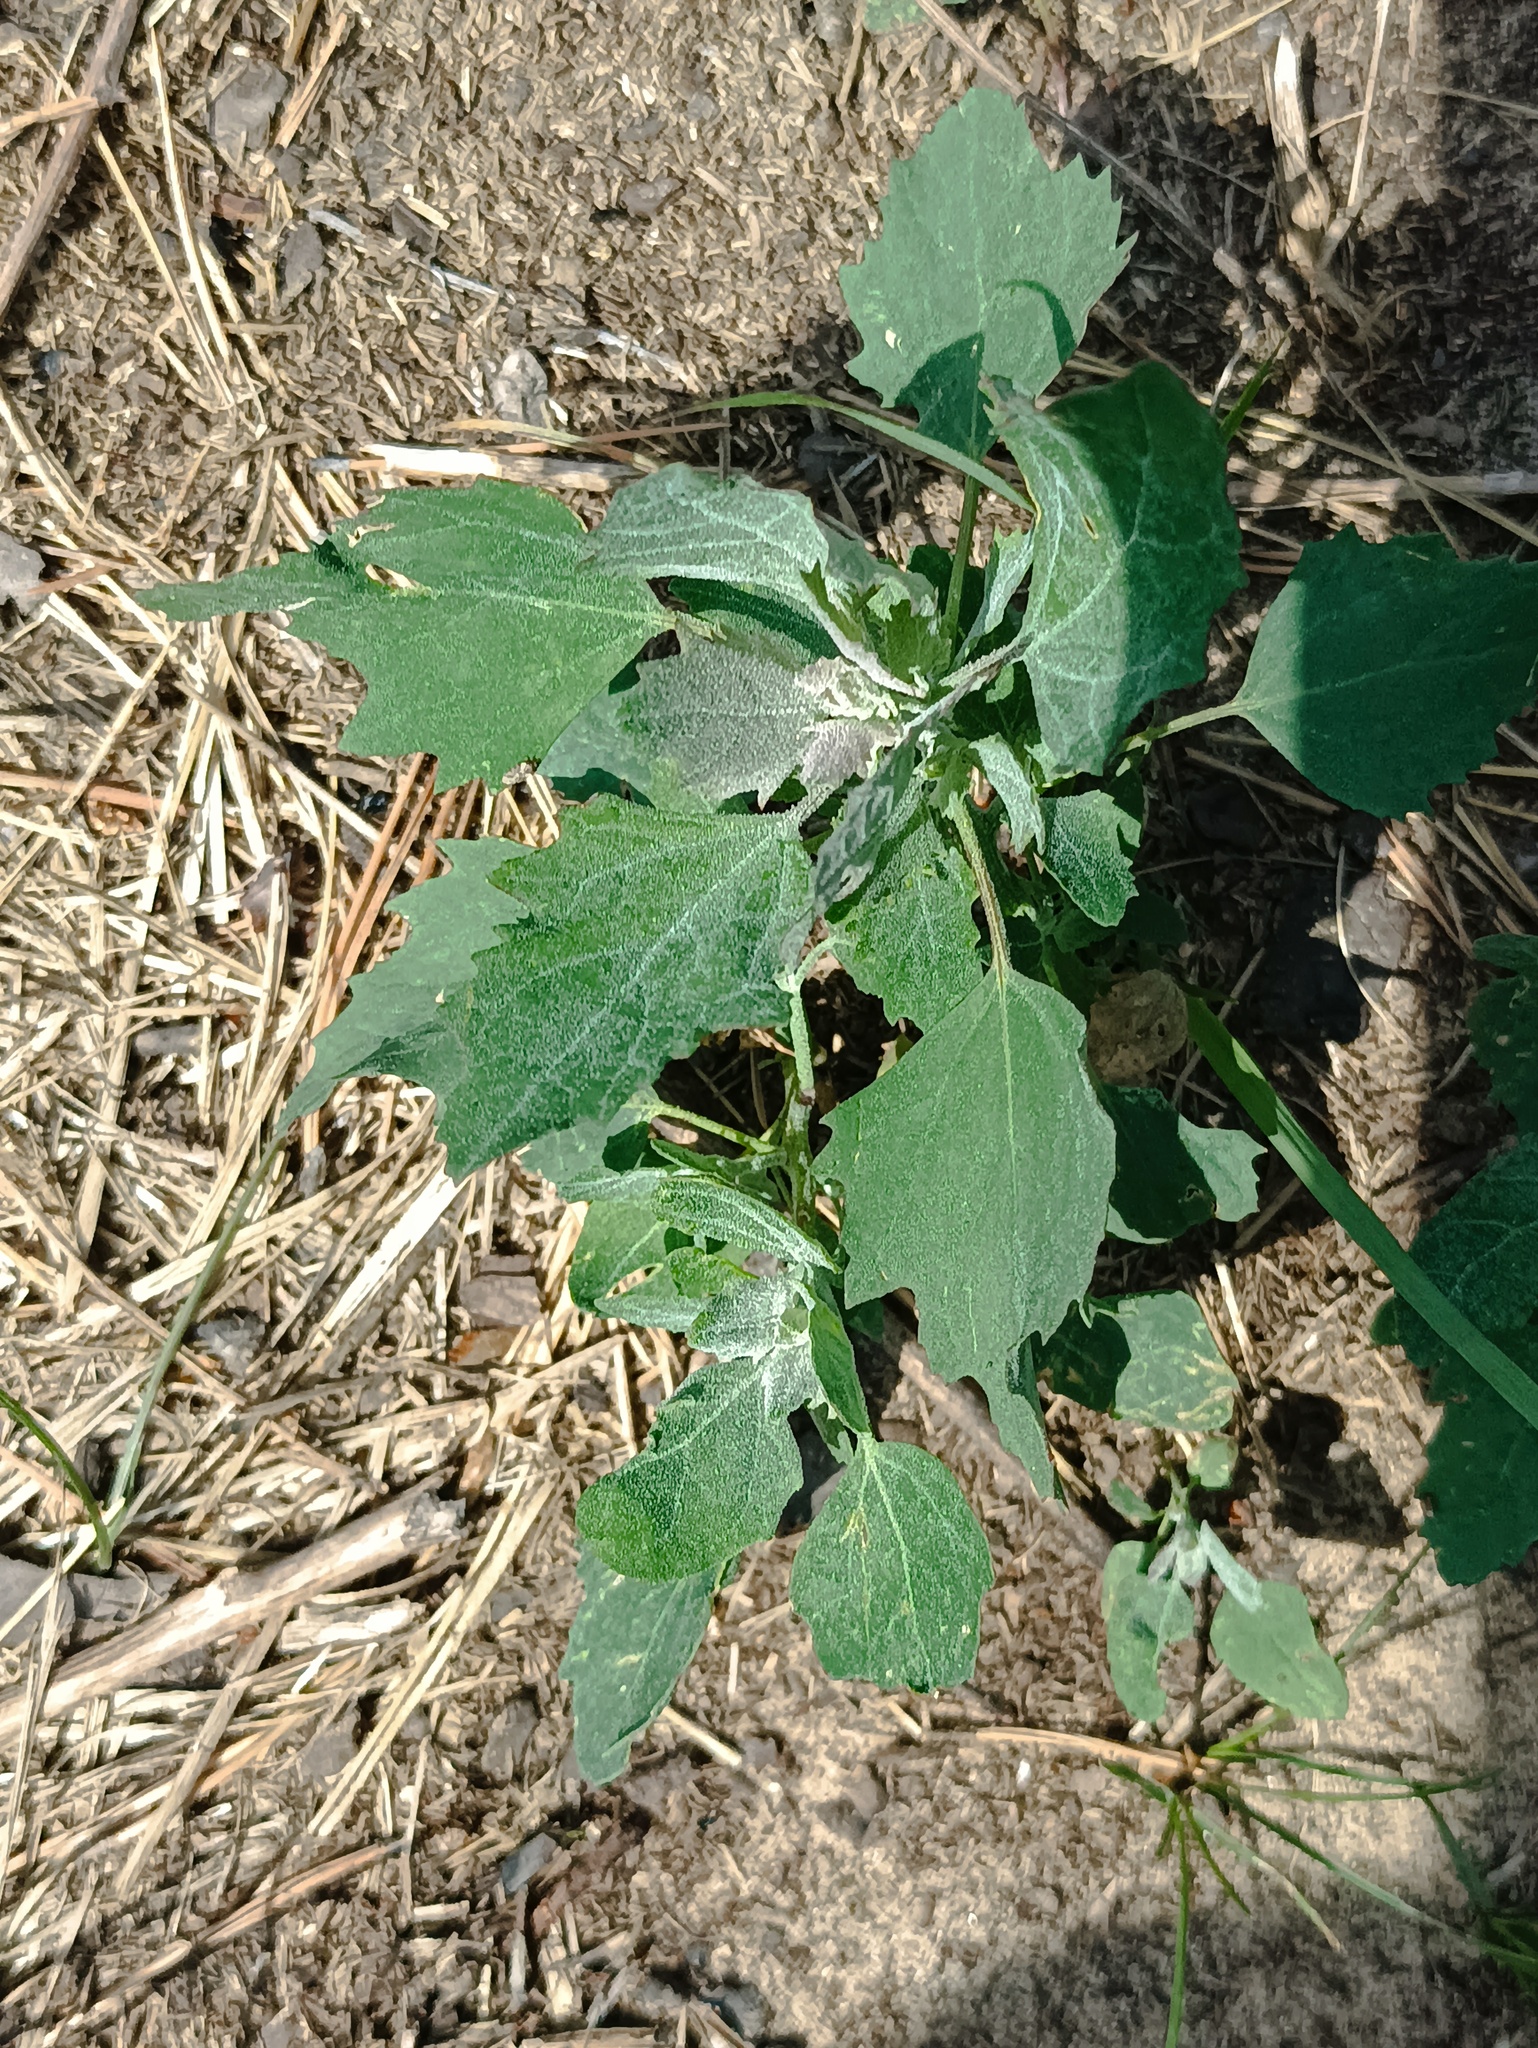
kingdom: Plantae
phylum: Tracheophyta
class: Magnoliopsida
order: Caryophyllales
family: Amaranthaceae
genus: Chenopodium
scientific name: Chenopodium album
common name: Fat-hen
